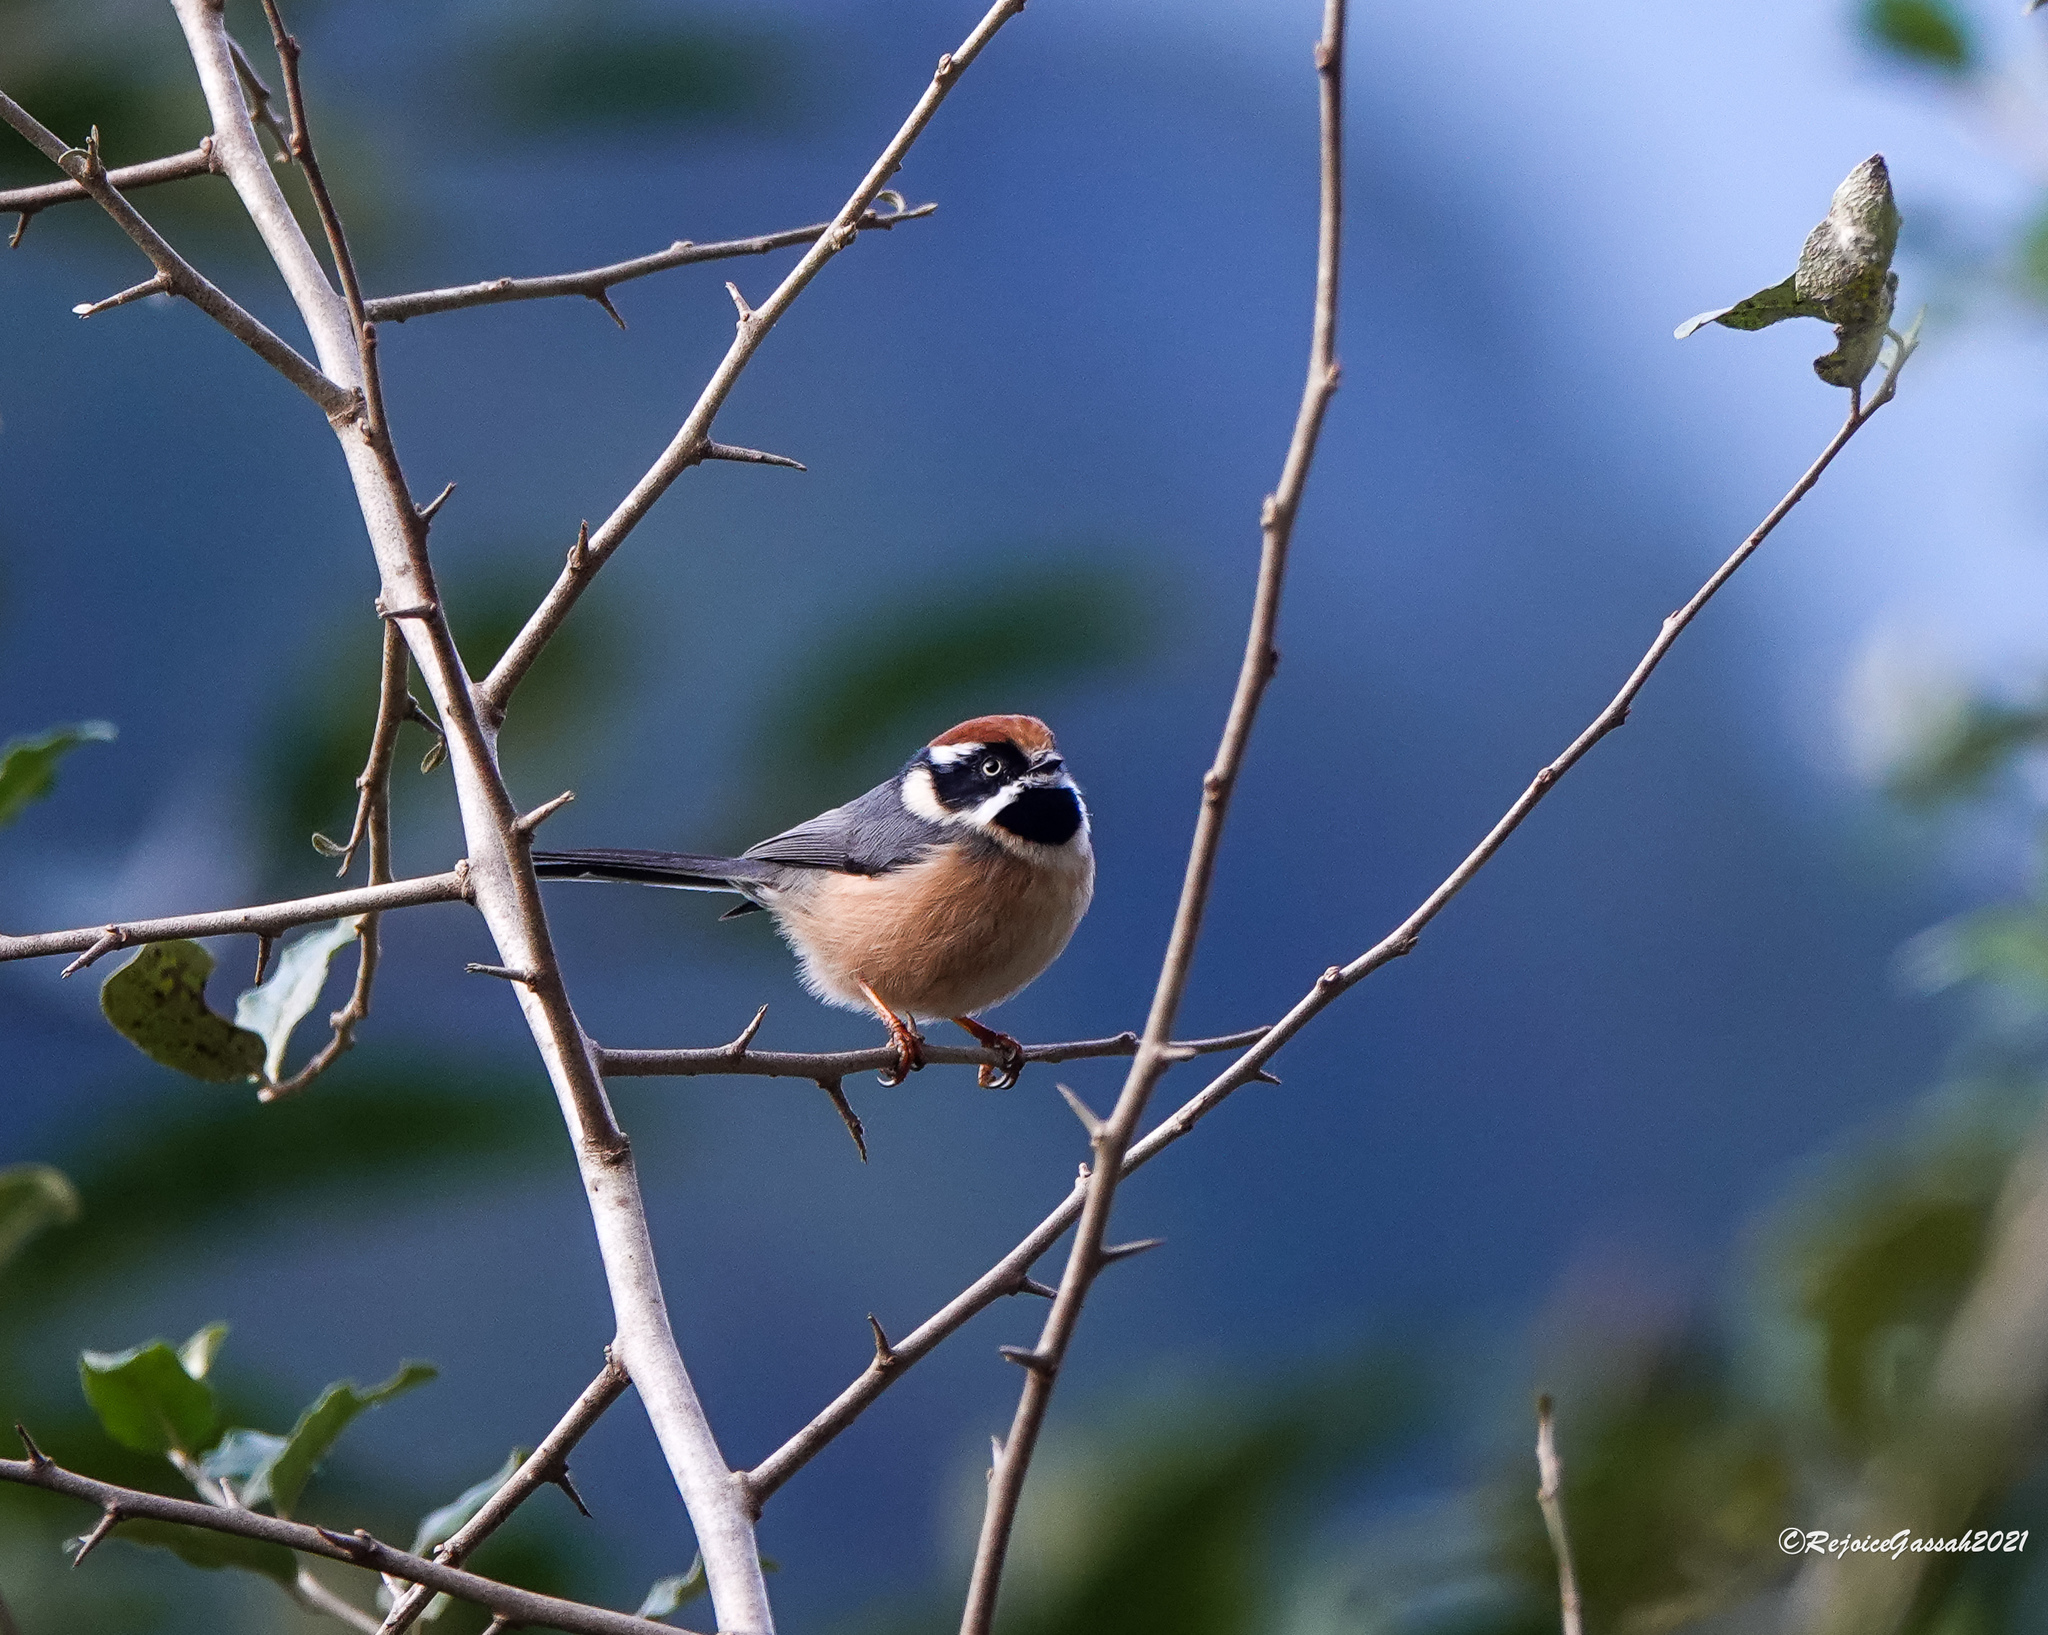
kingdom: Animalia
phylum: Chordata
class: Aves
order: Passeriformes
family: Aegithalidae
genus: Aegithalos
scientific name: Aegithalos concinnus
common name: Black-throated bushtit
